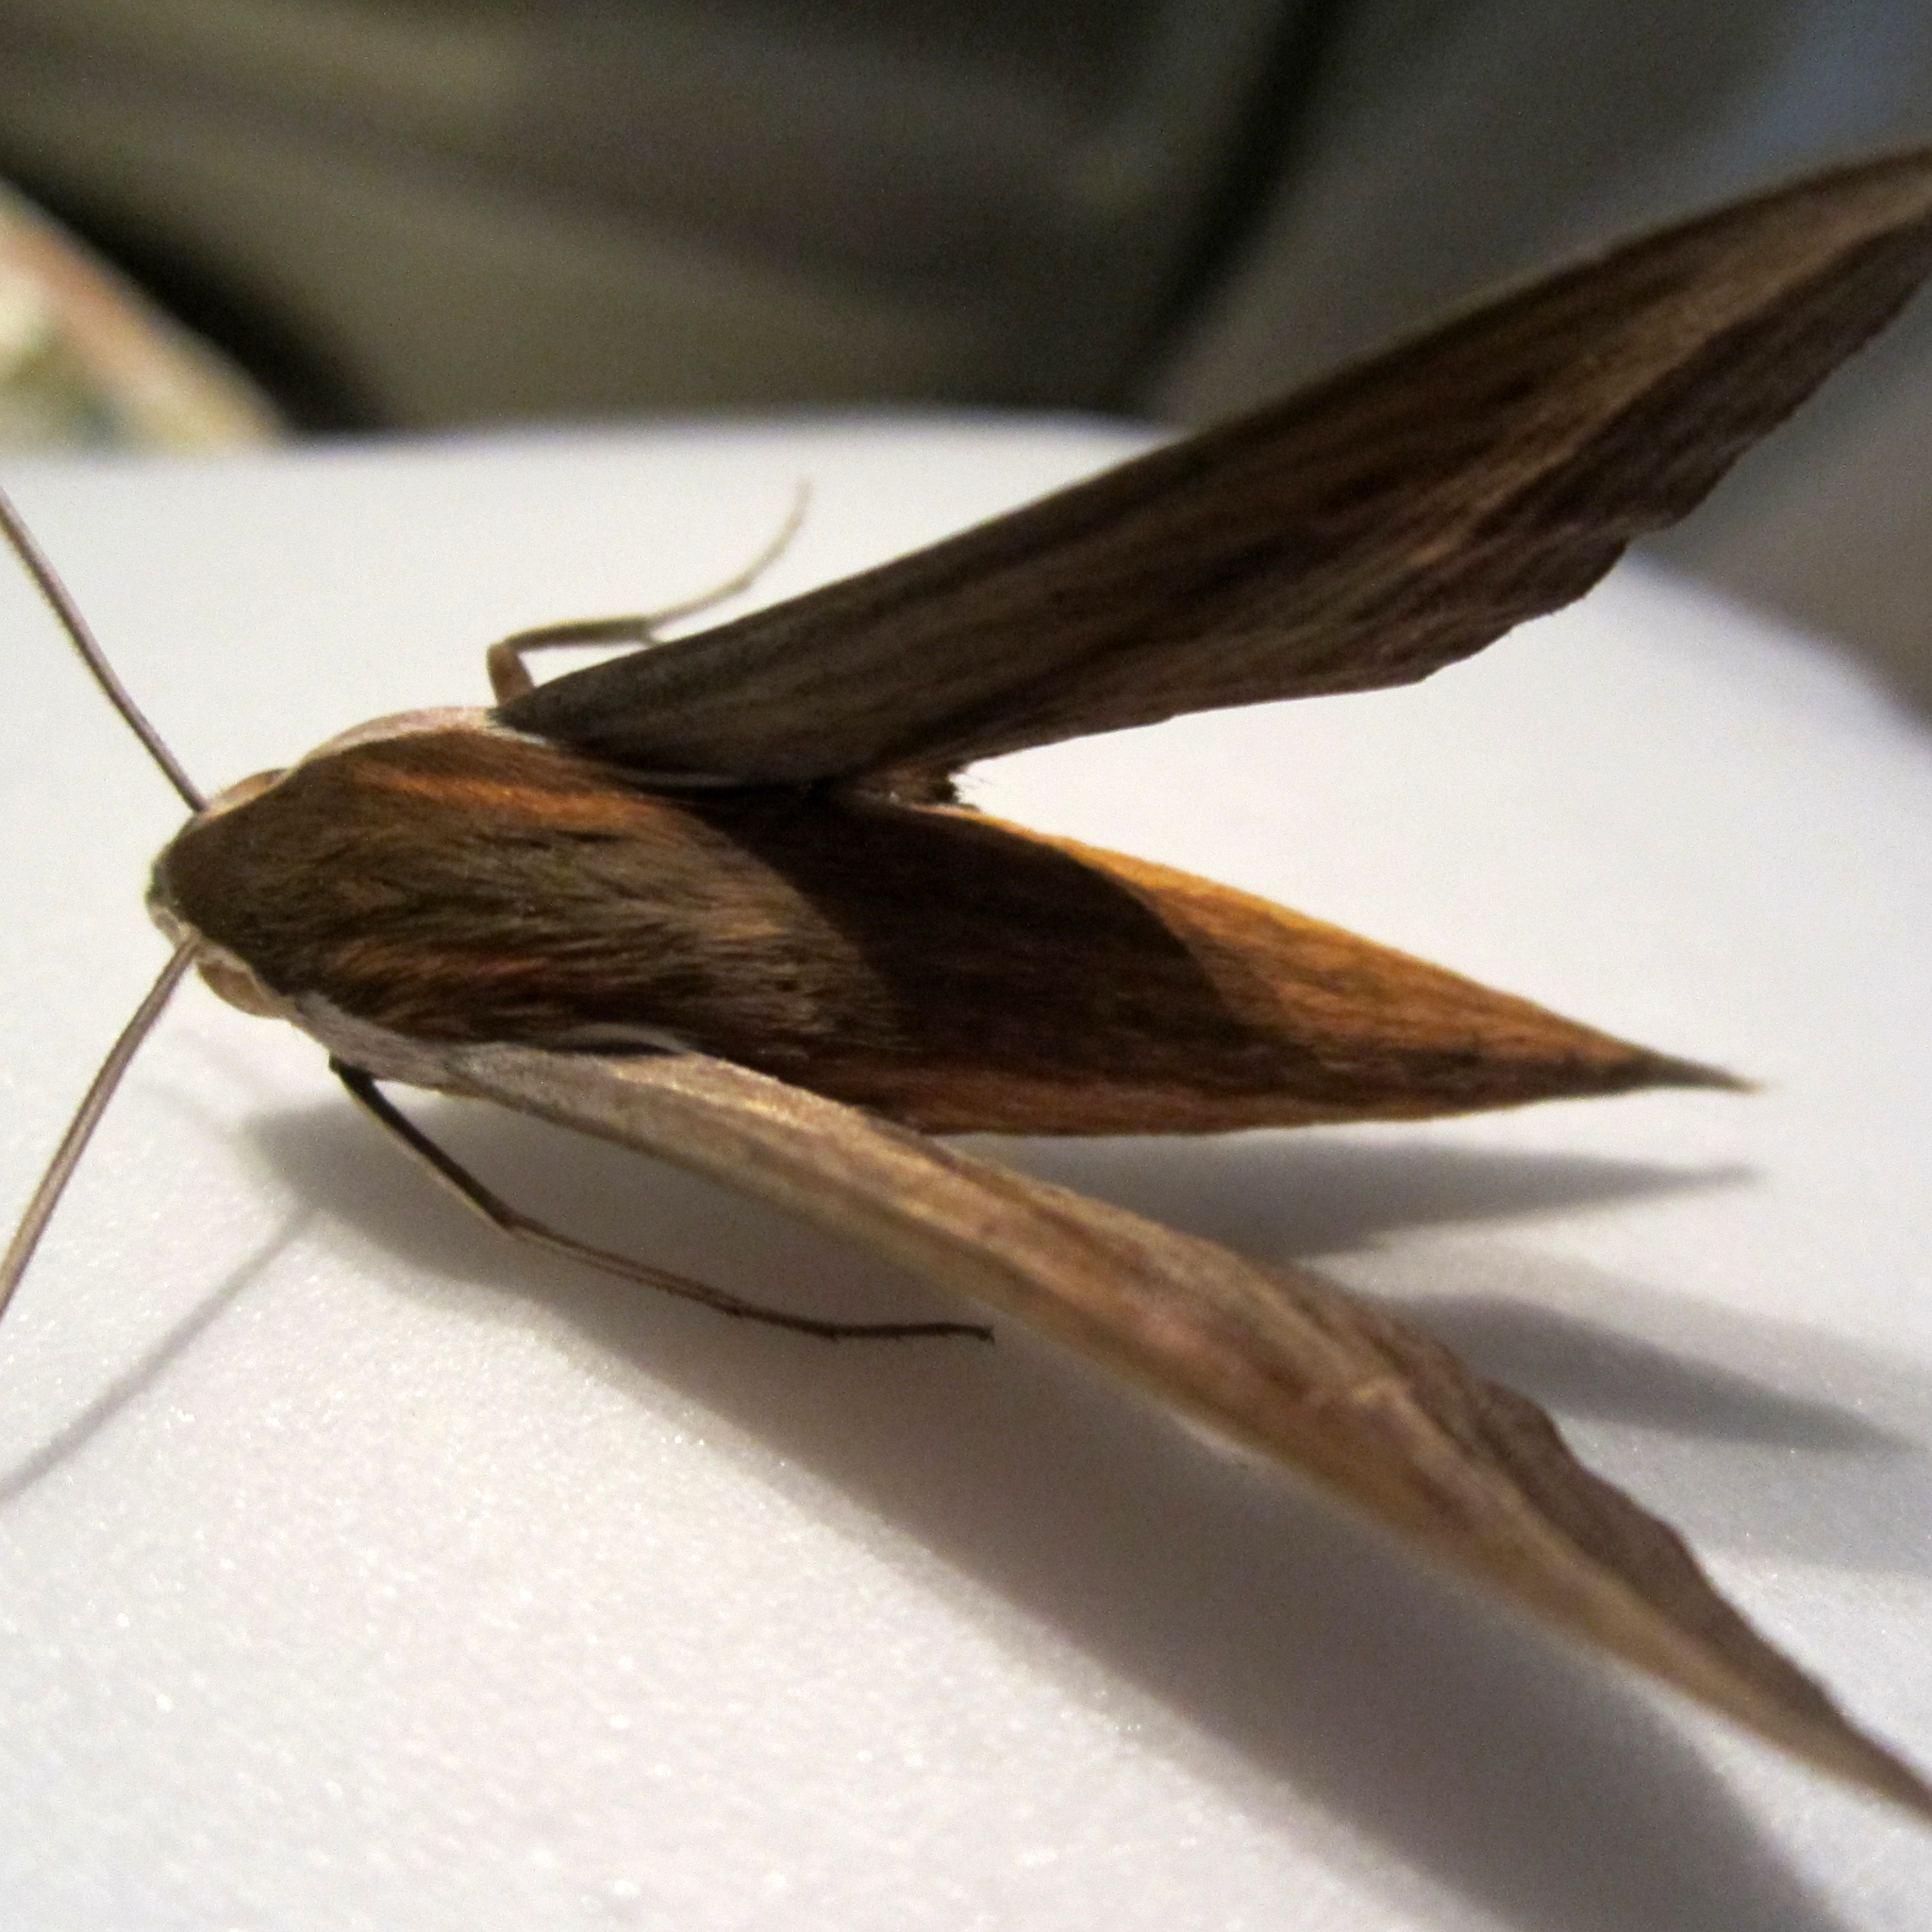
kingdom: Animalia
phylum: Arthropoda
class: Insecta
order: Lepidoptera
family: Sphingidae
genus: Xylophanes
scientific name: Xylophanes tersa
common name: Tersa sphinx
